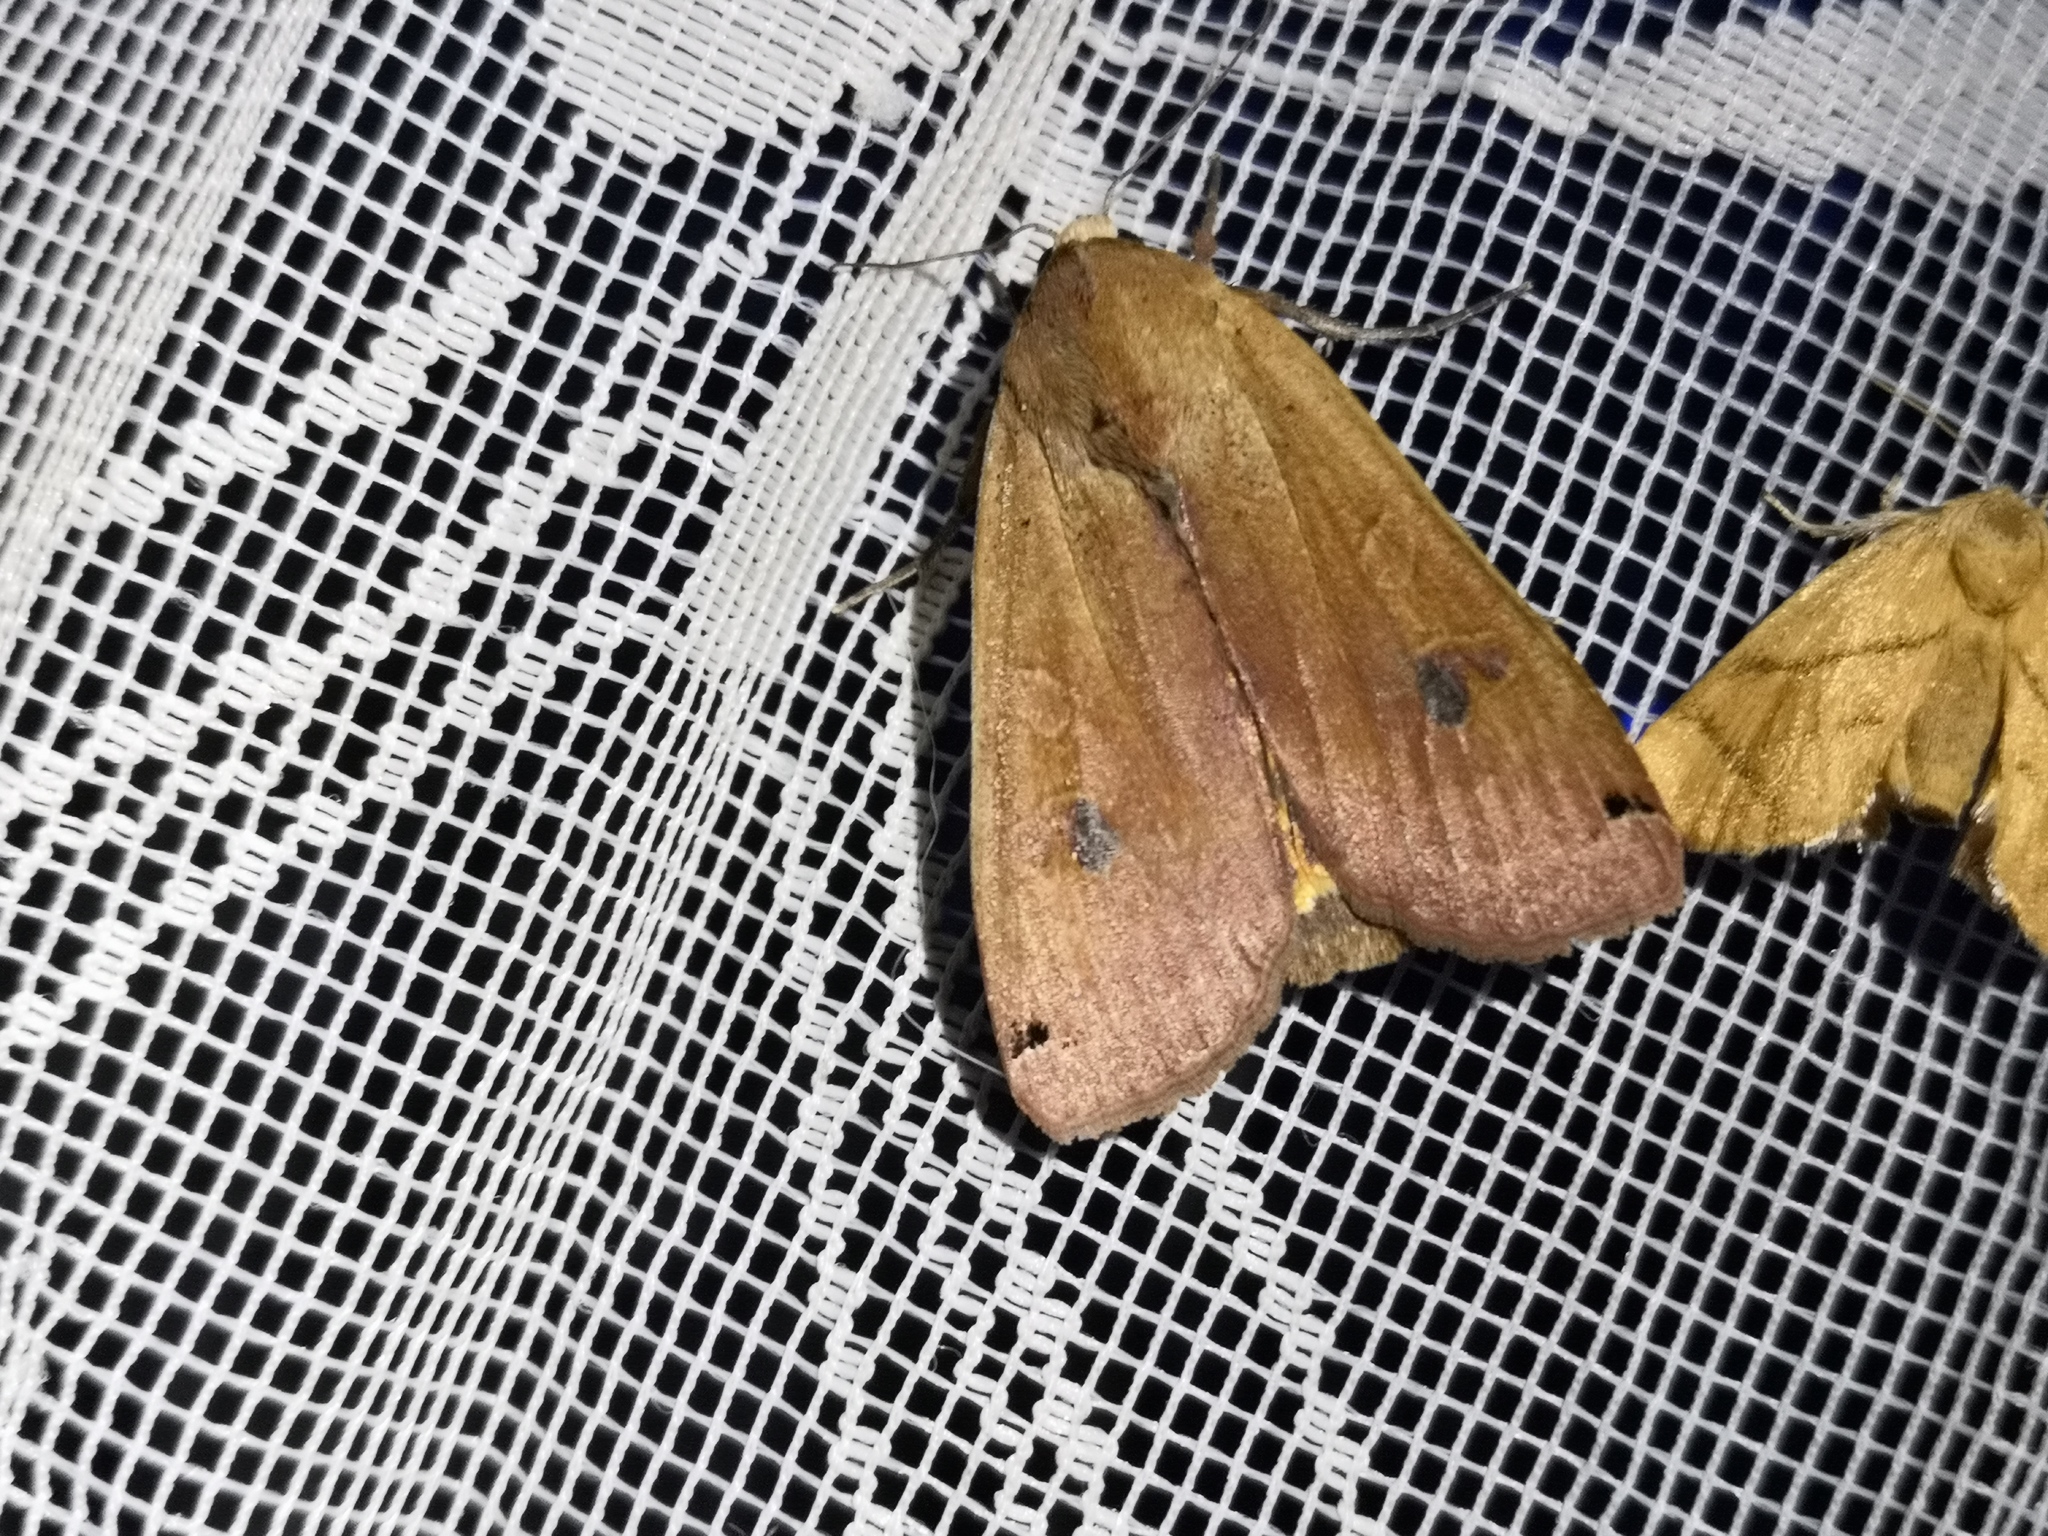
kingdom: Animalia
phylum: Arthropoda
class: Insecta
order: Lepidoptera
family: Noctuidae
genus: Noctua
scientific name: Noctua pronuba
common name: Large yellow underwing
